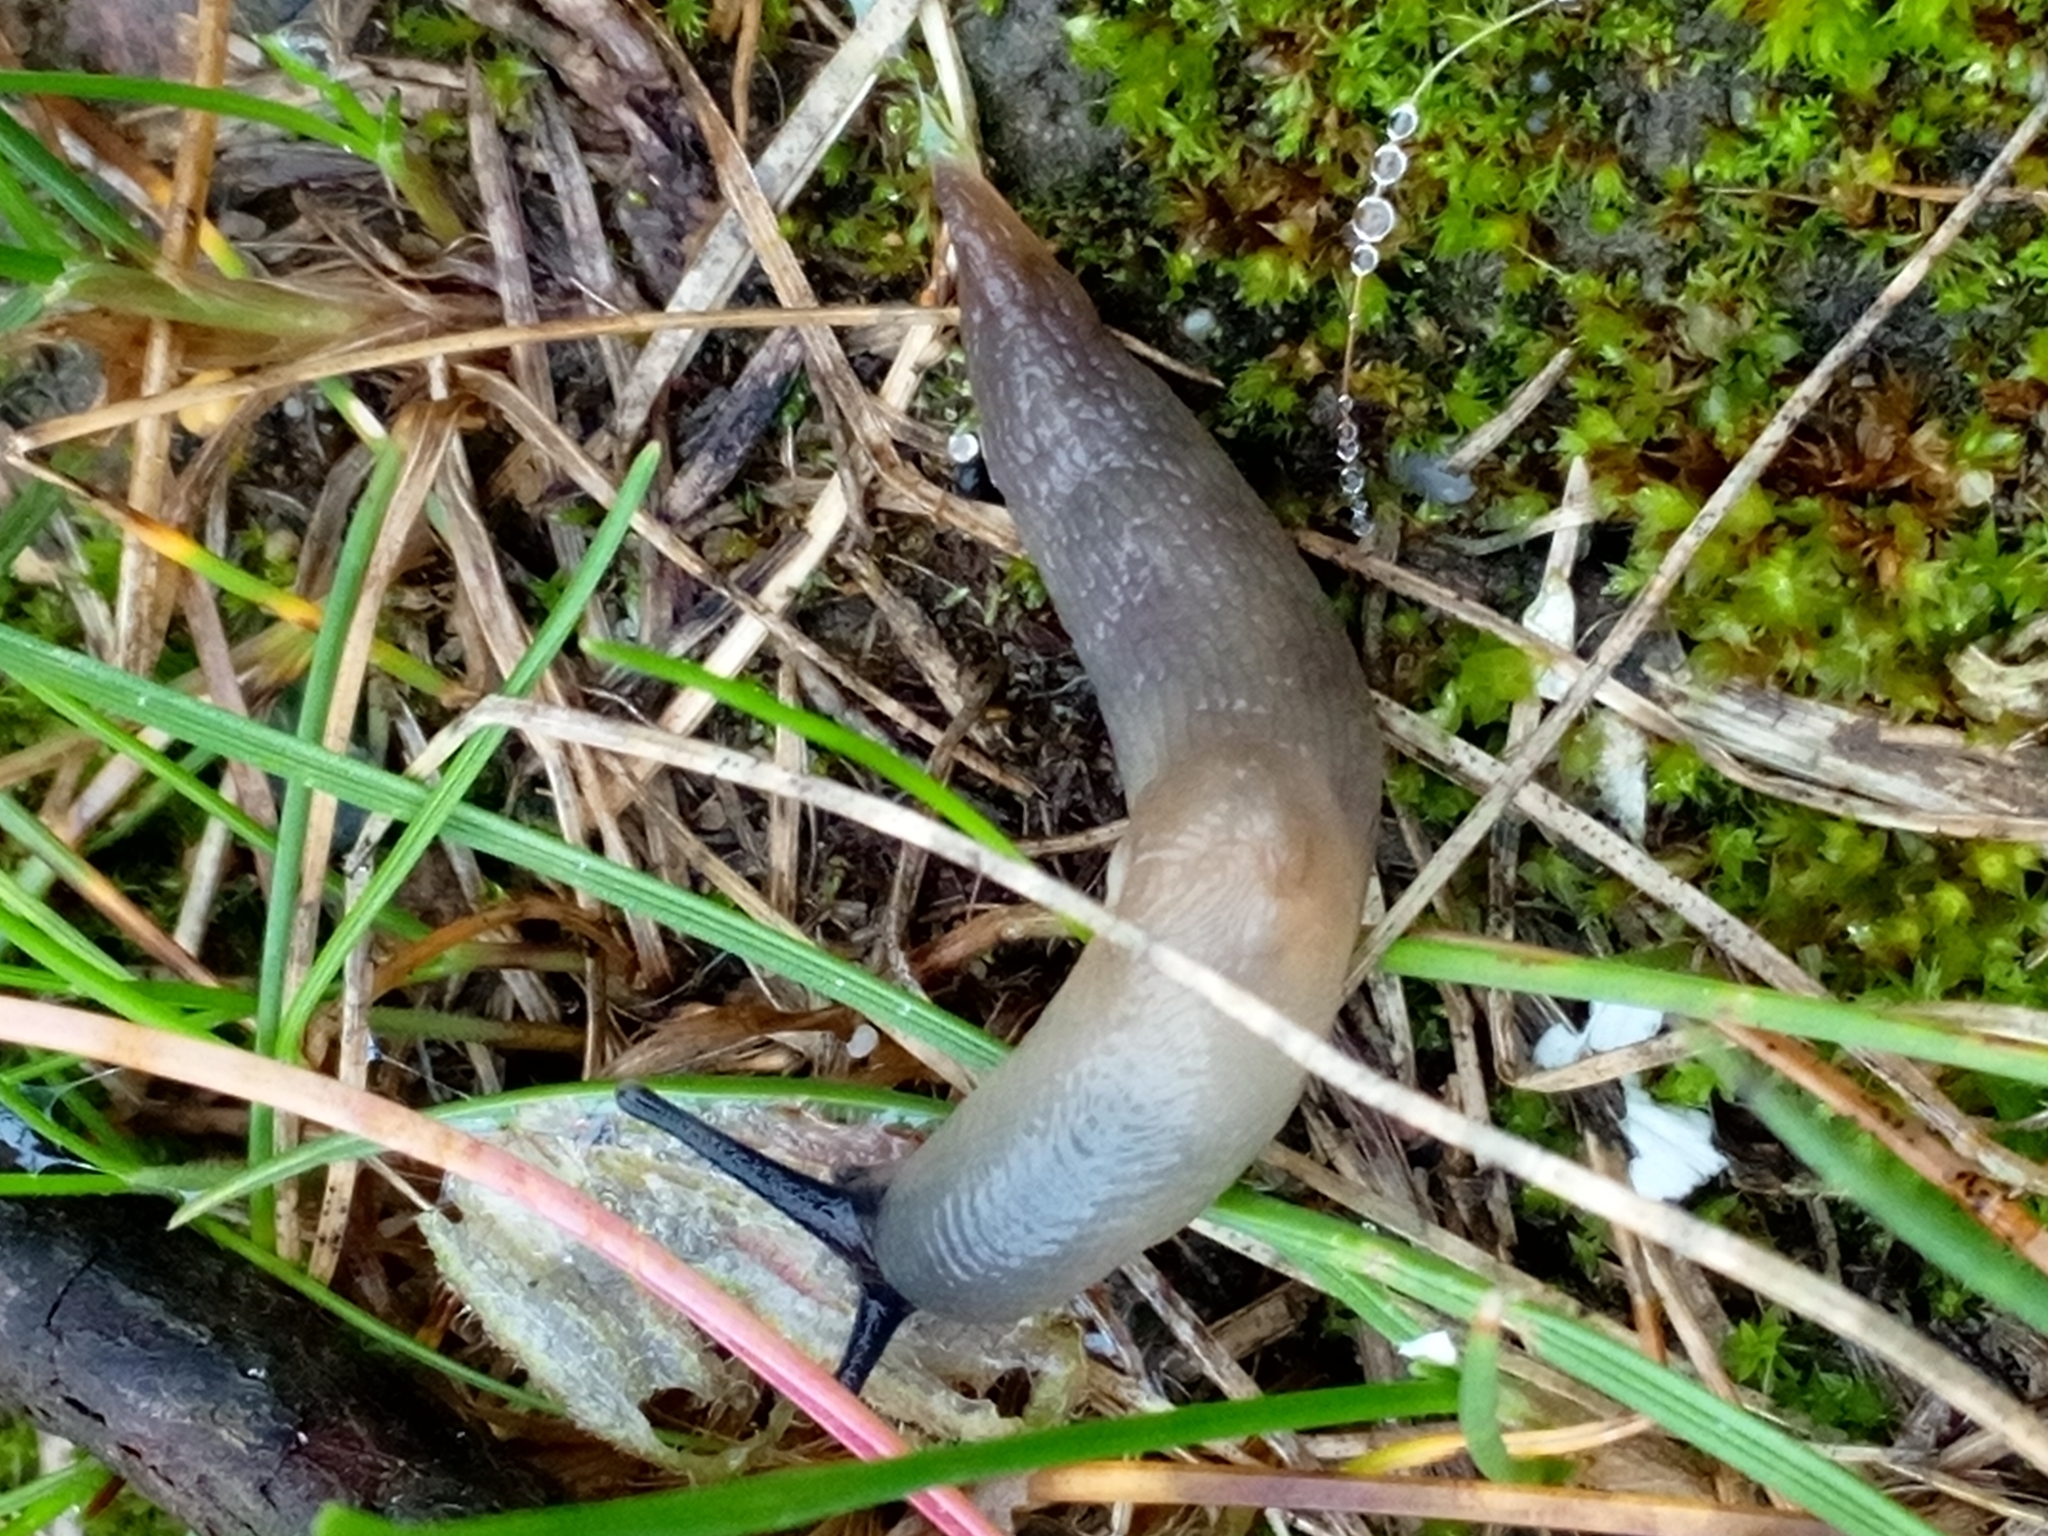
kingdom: Animalia
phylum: Mollusca
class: Gastropoda
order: Stylommatophora
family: Agriolimacidae
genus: Krynickillus
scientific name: Krynickillus melanocephalus
